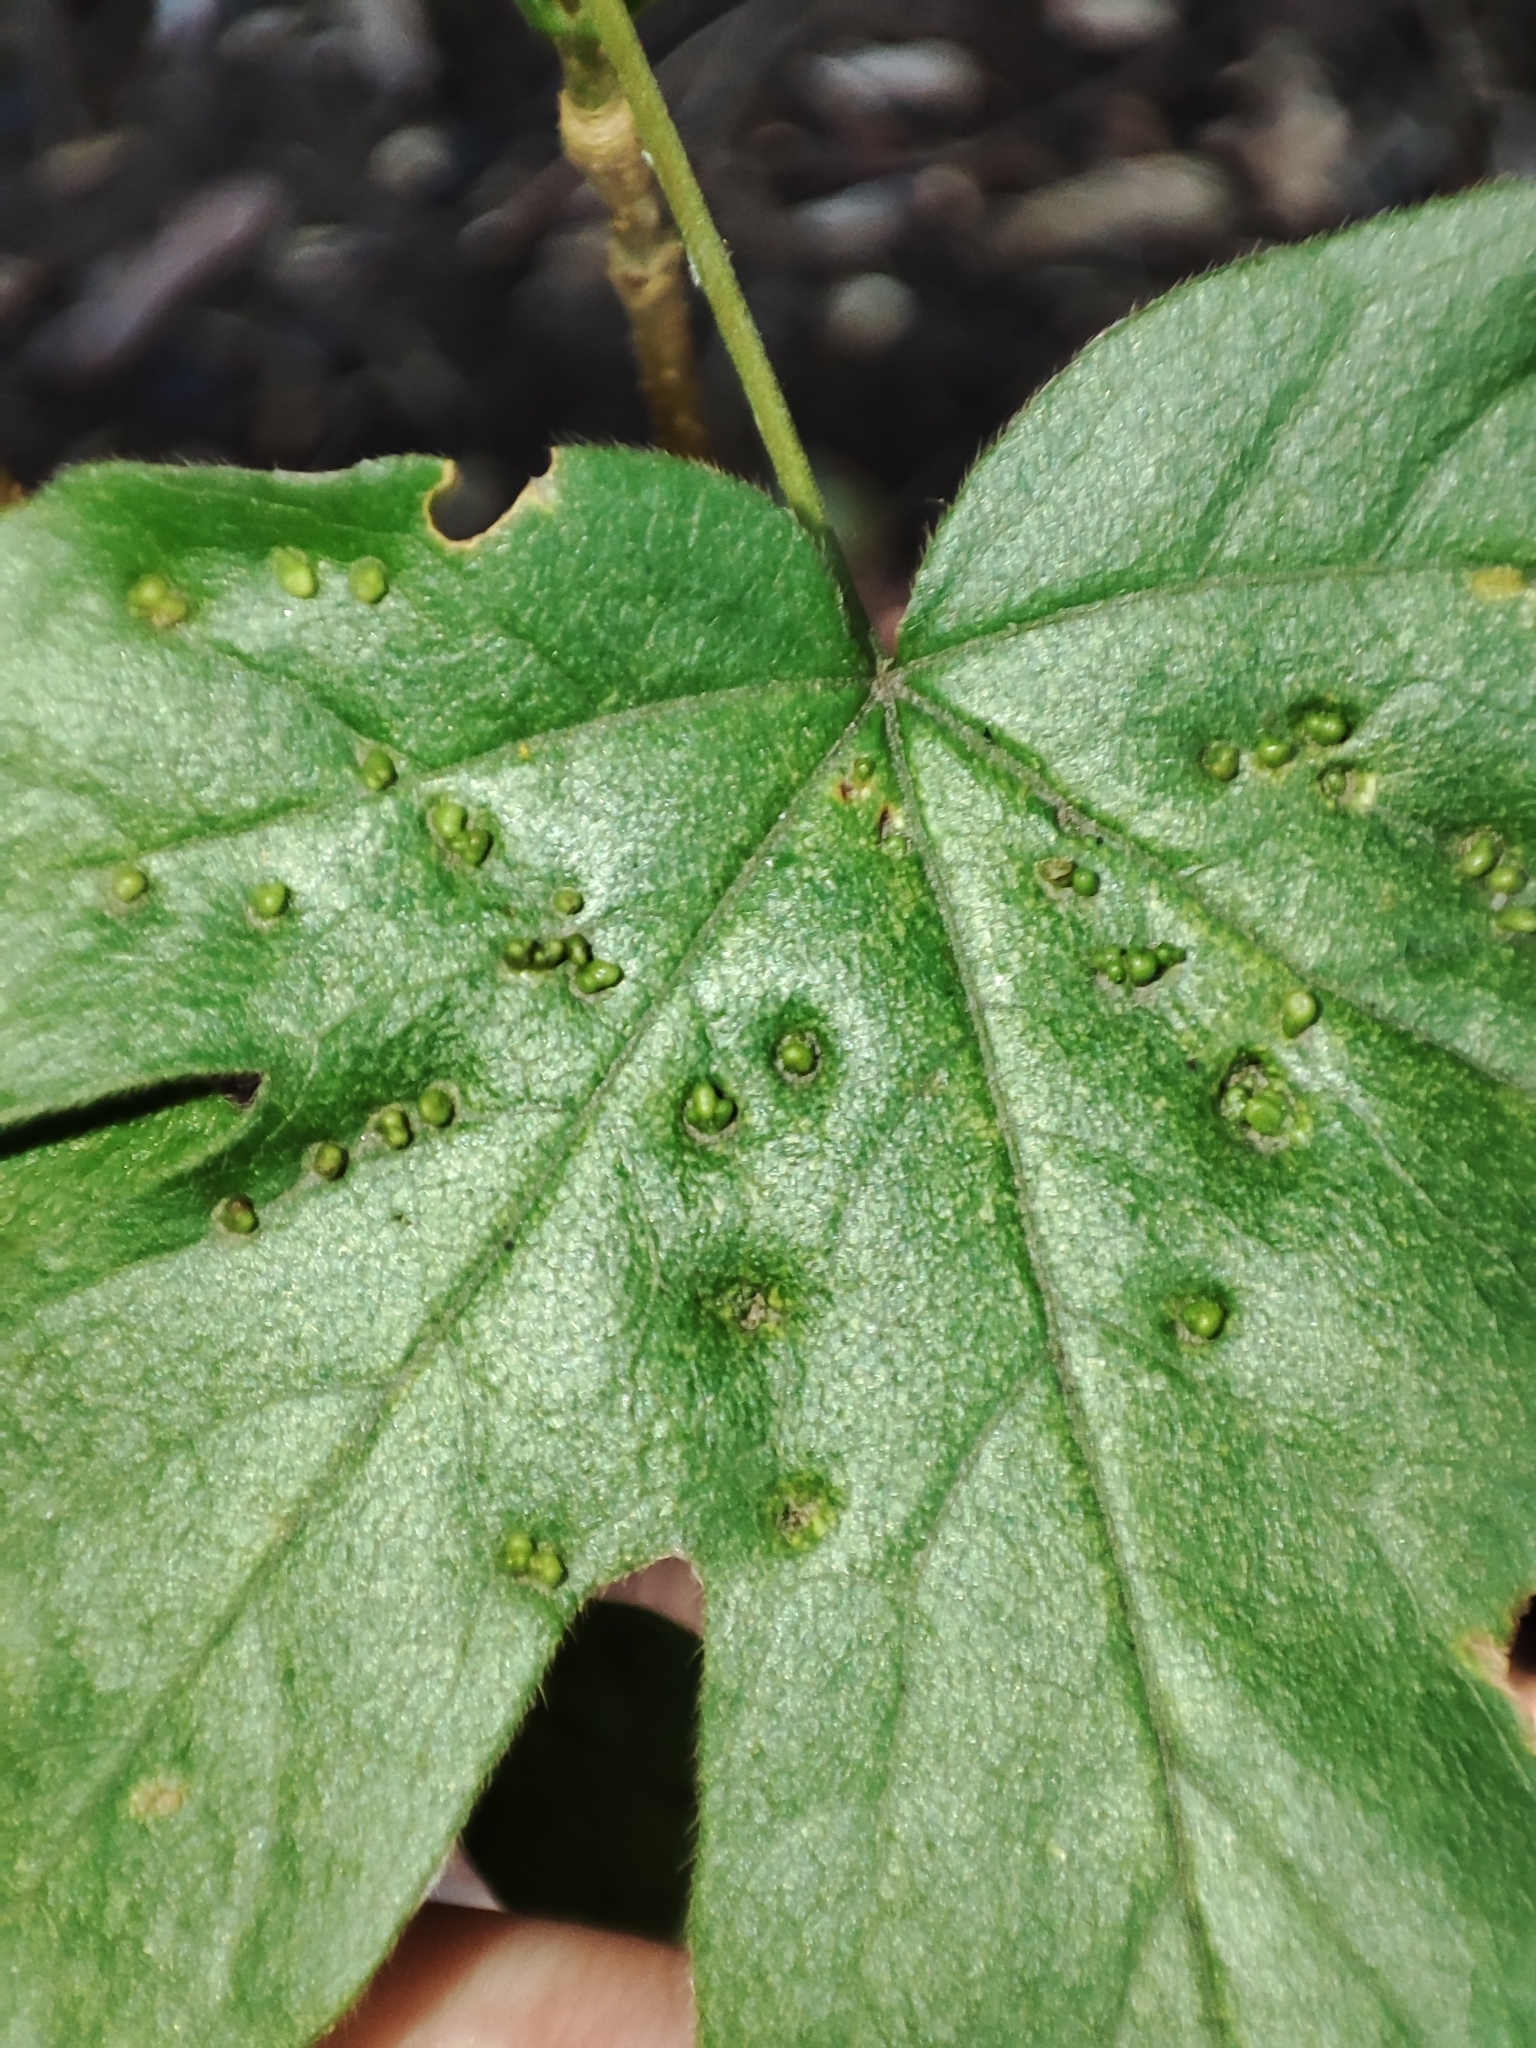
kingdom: Plantae
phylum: Tracheophyta
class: Magnoliopsida
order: Sapindales
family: Sapindaceae
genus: Acer
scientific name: Acer campestre
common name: Field maple
